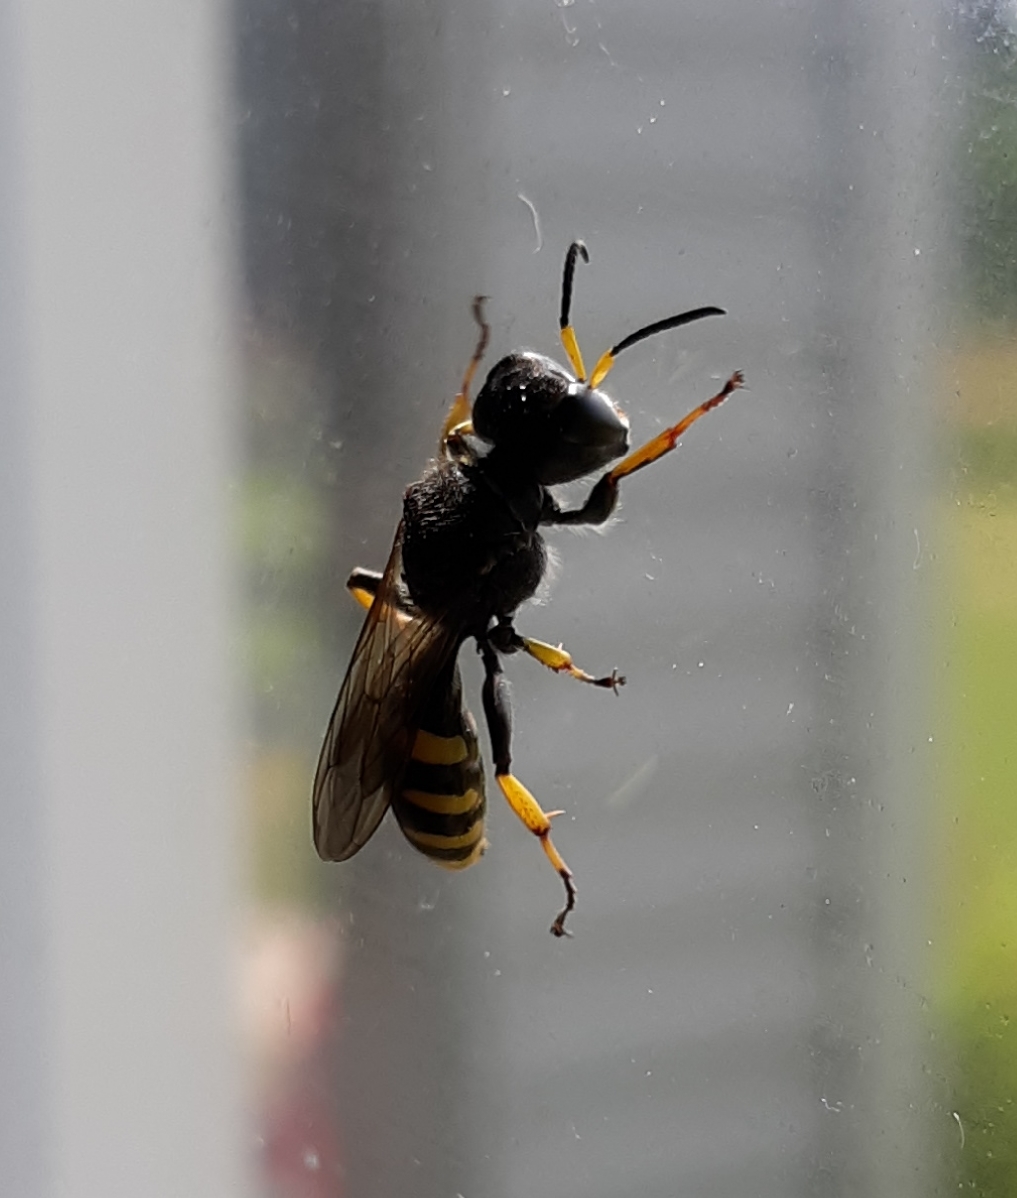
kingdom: Animalia
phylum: Arthropoda
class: Insecta
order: Hymenoptera
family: Crabronidae
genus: Ectemnius
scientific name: Ectemnius cephalotes
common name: Sphecid wasp
